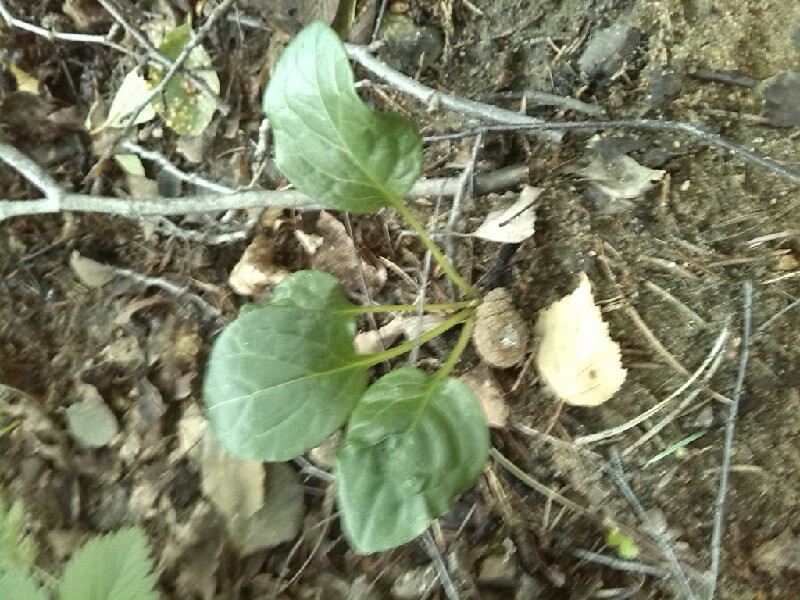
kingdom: Plantae
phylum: Tracheophyta
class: Magnoliopsida
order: Ericales
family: Ericaceae
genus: Pyrola
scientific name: Pyrola chlorantha
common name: Green wintergreen
